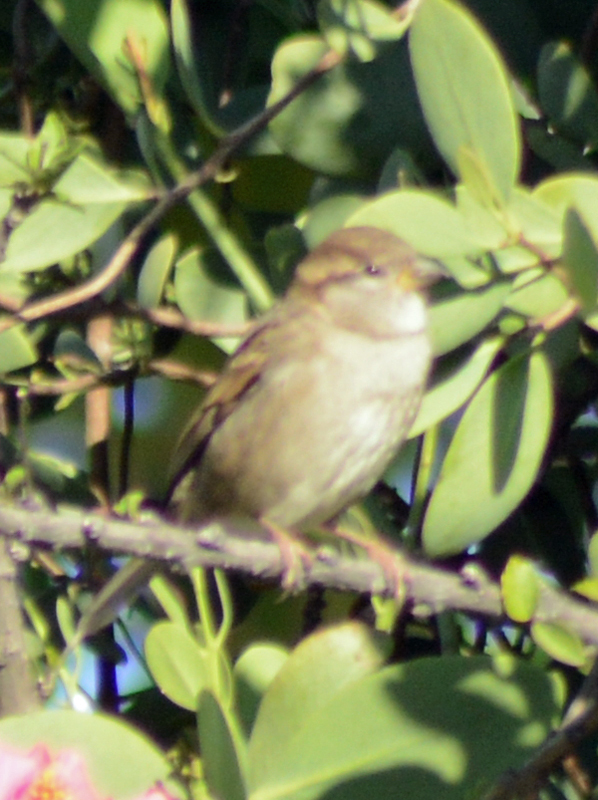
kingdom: Animalia
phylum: Chordata
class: Aves
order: Passeriformes
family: Passeridae
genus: Passer
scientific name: Passer domesticus
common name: House sparrow
